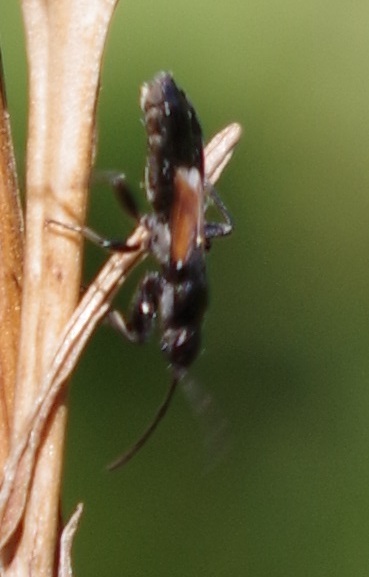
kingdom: Animalia
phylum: Arthropoda
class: Insecta
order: Hemiptera
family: Rhyparochromidae
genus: Pterotmetus
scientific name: Pterotmetus staphyliniformis
